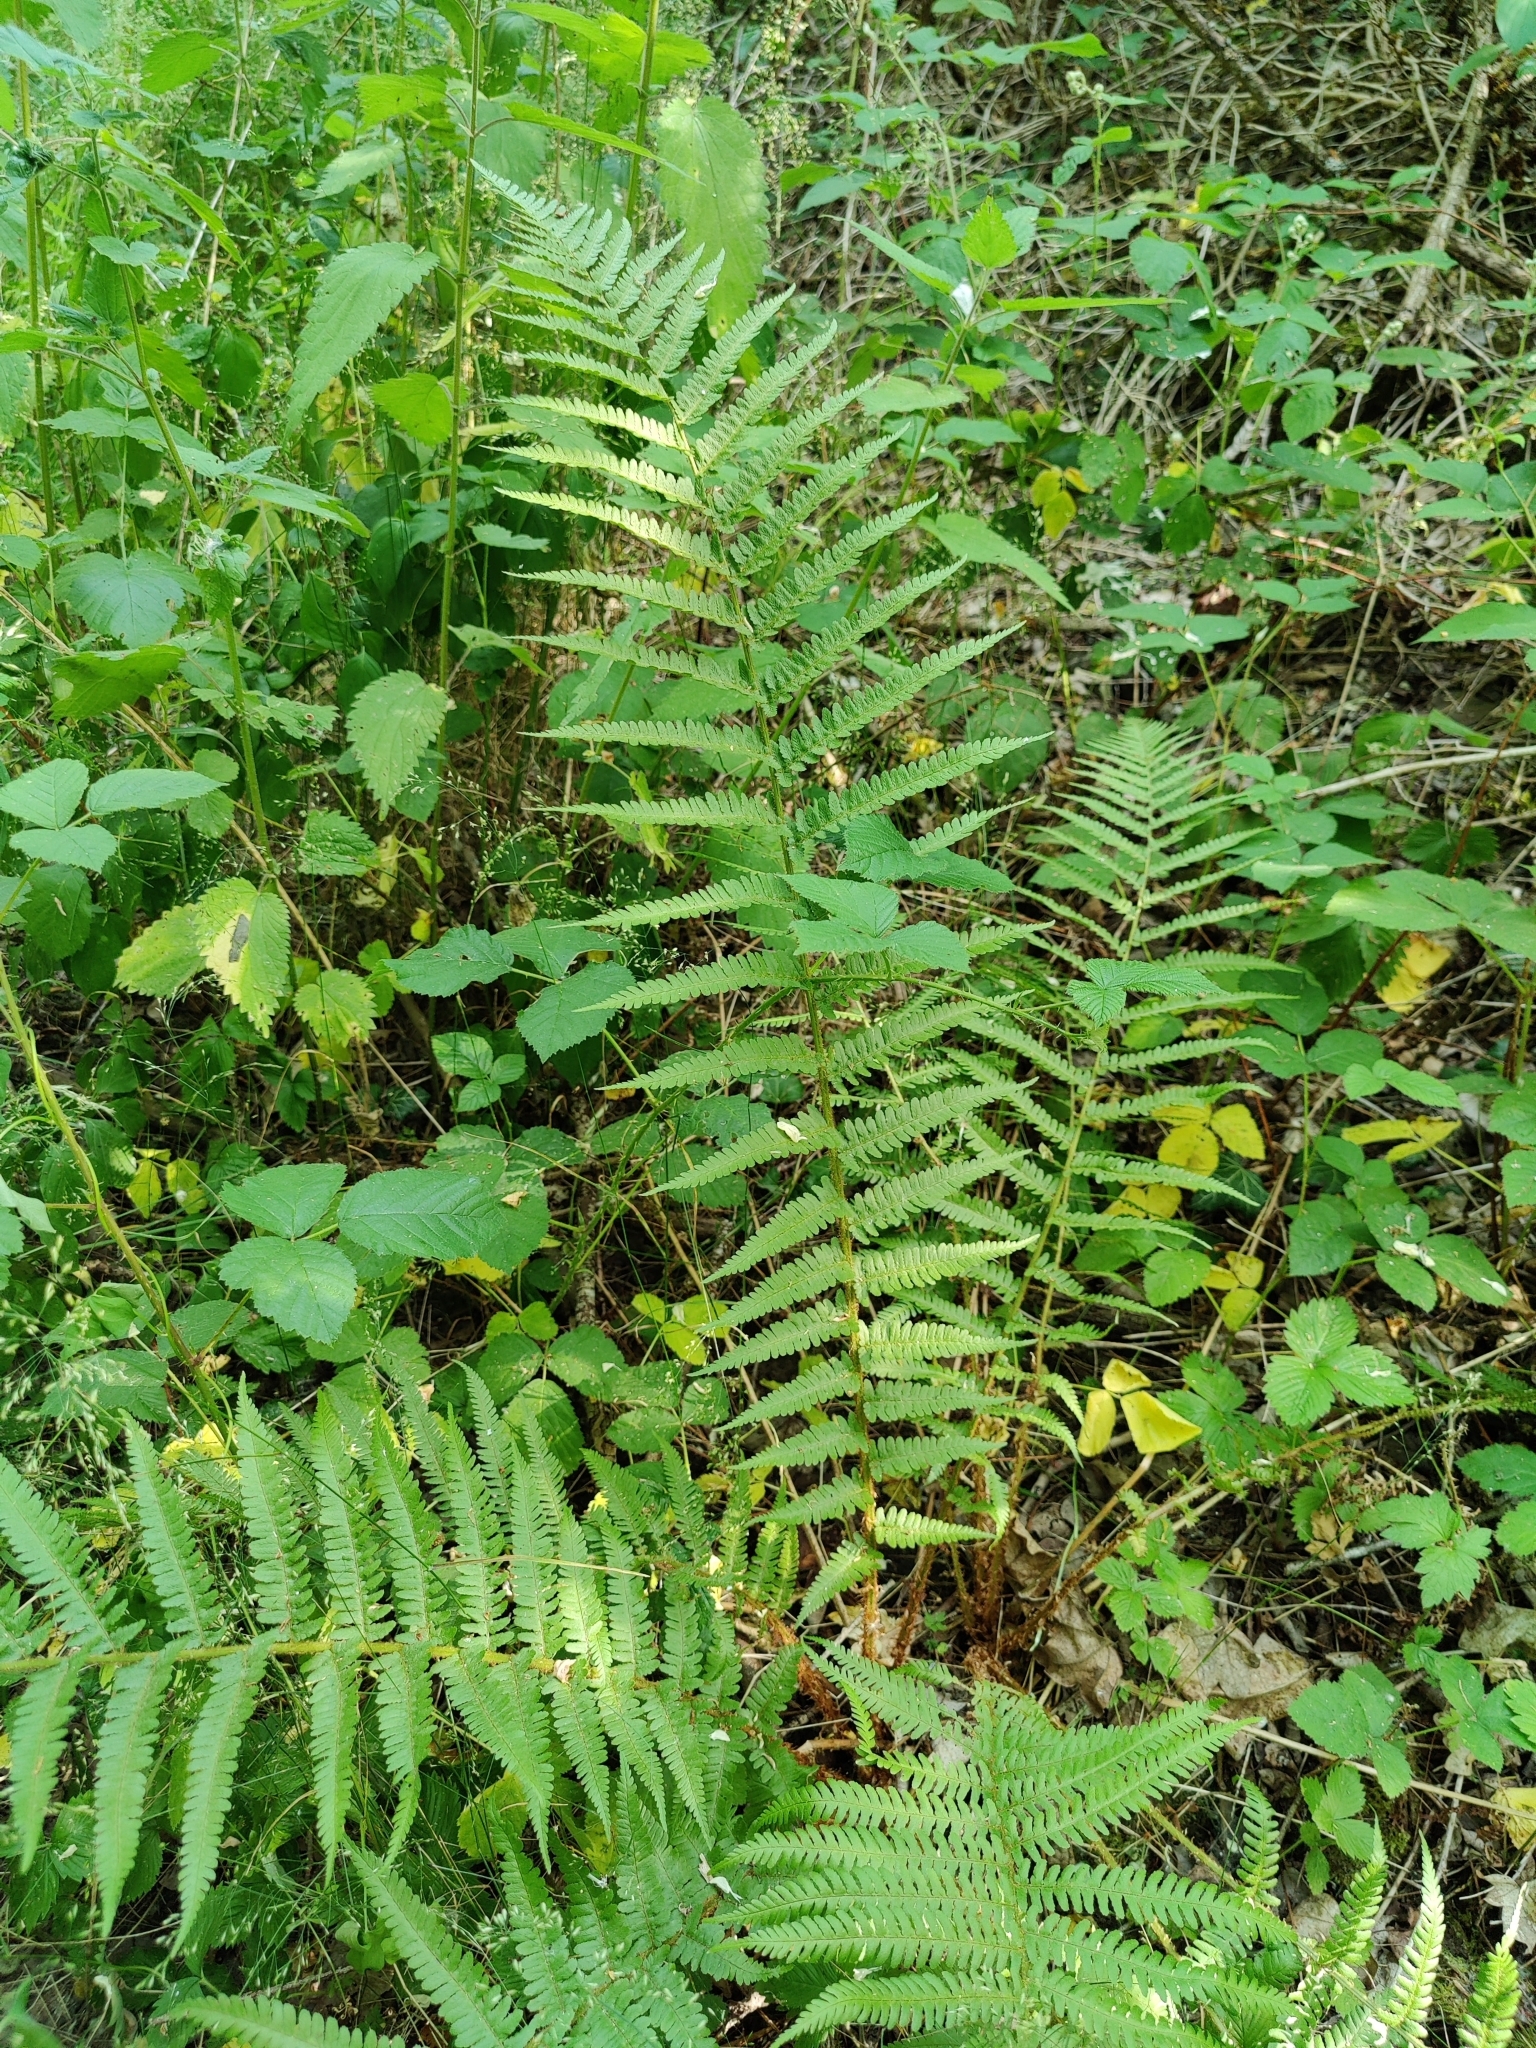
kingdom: Plantae
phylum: Tracheophyta
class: Polypodiopsida
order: Polypodiales
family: Dryopteridaceae
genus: Dryopteris
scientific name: Dryopteris filix-mas
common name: Male fern
